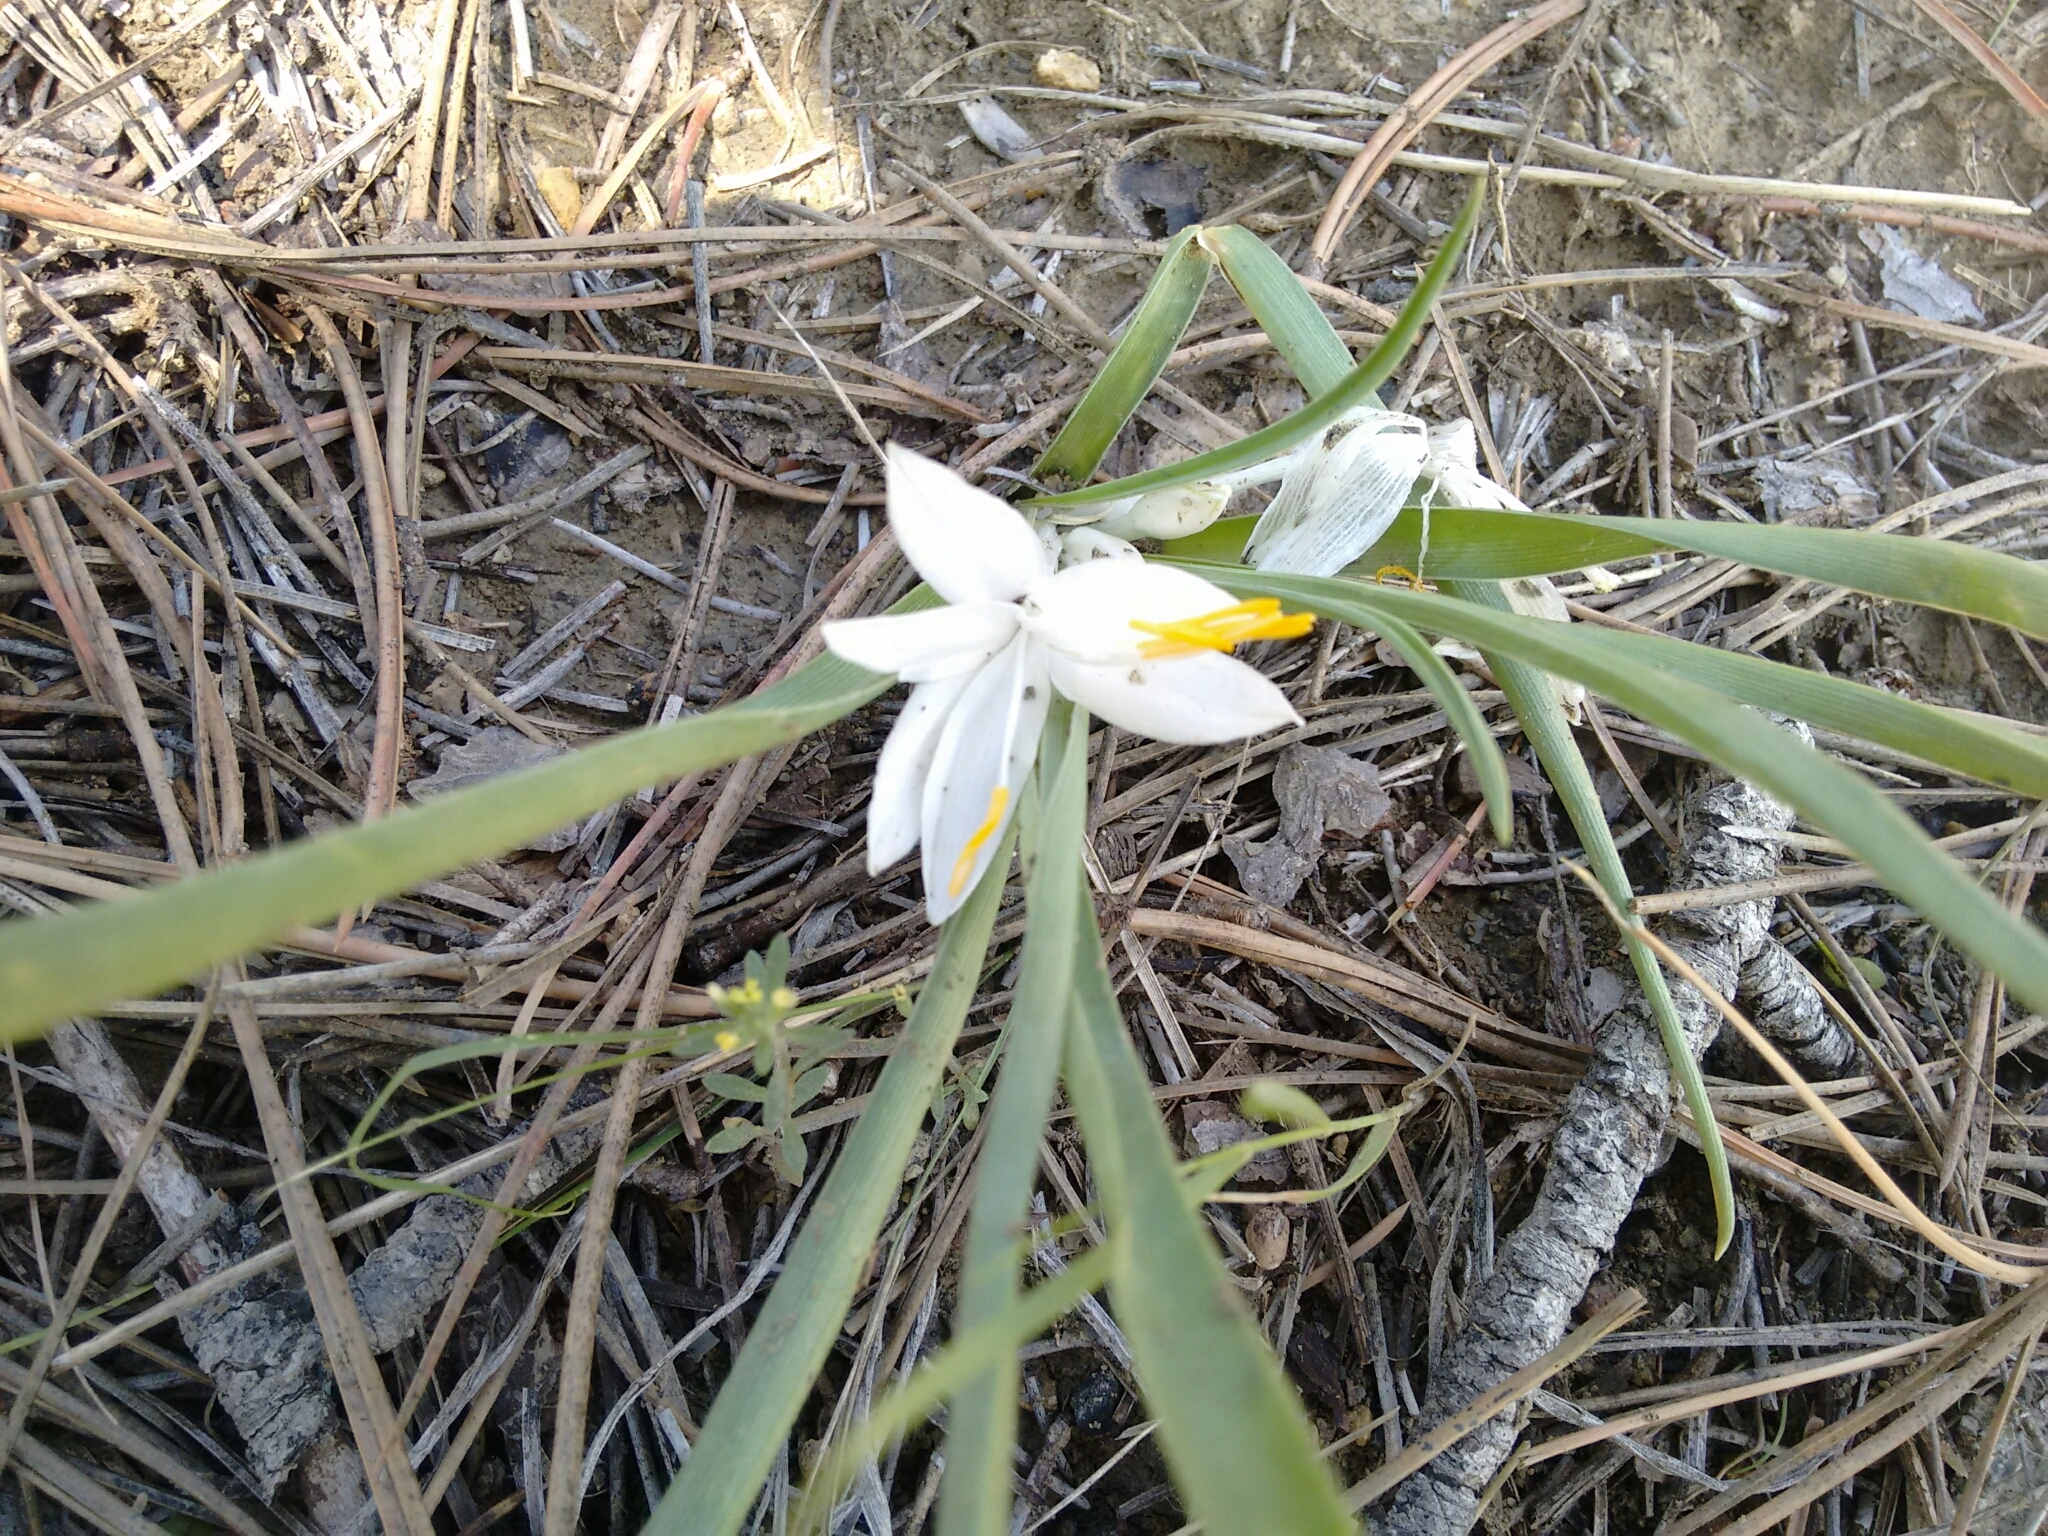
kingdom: Plantae
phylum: Tracheophyta
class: Liliopsida
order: Asparagales
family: Asparagaceae
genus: Leucocrinum
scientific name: Leucocrinum montanum
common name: Mountain-lily
